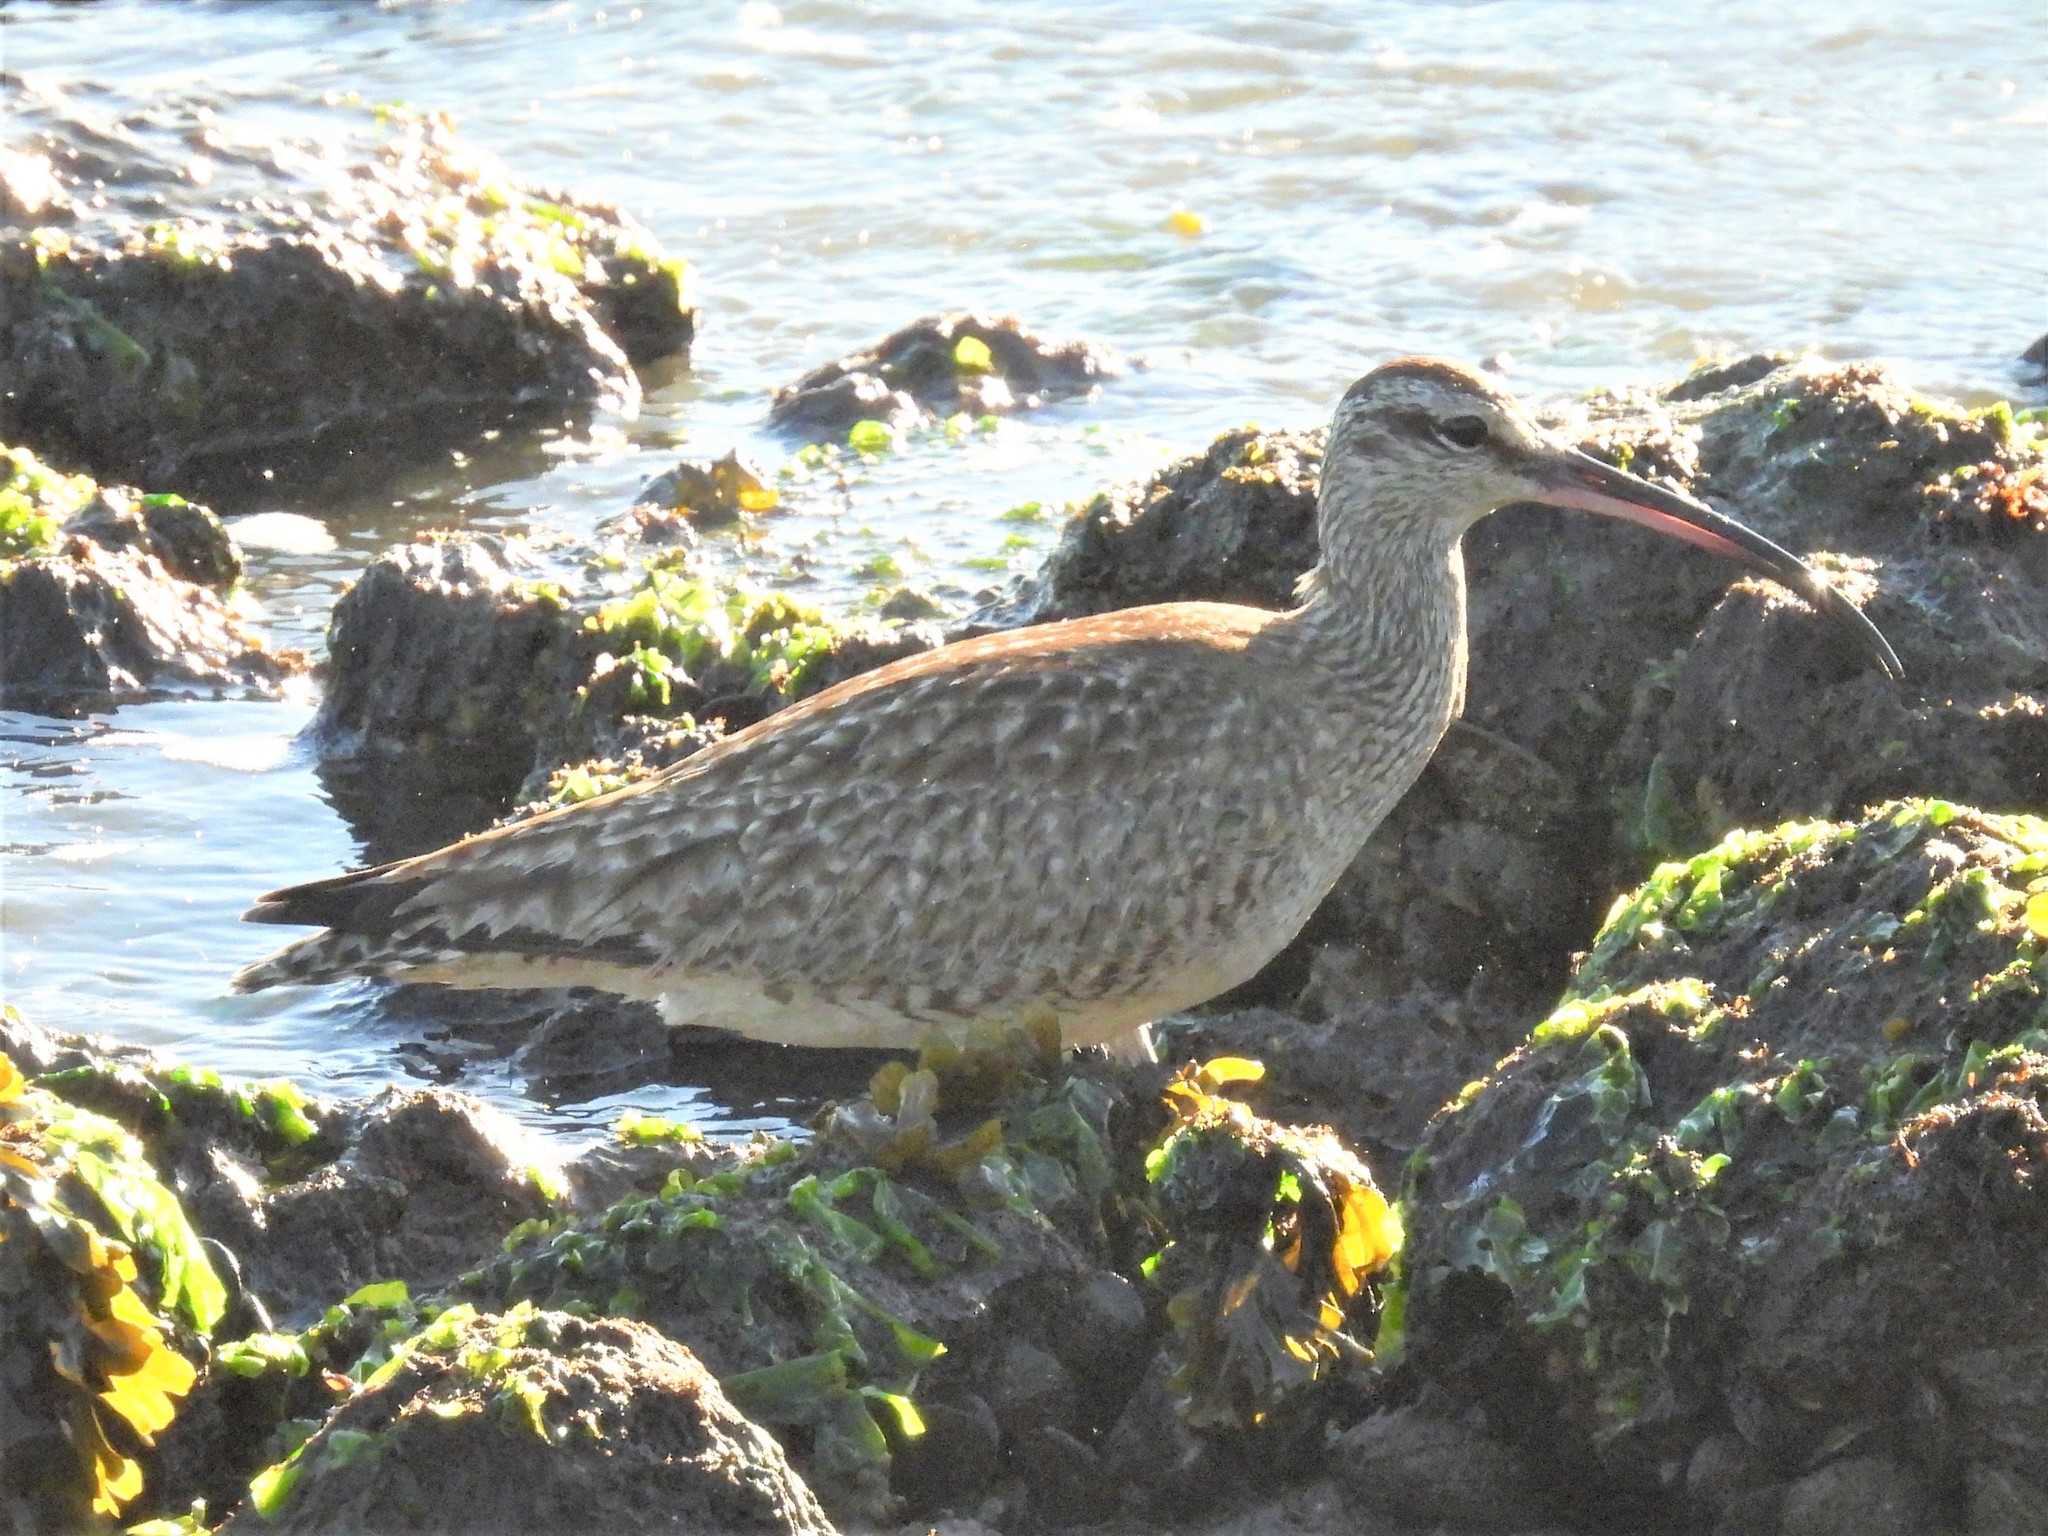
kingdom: Animalia
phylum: Chordata
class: Aves
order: Charadriiformes
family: Scolopacidae
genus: Numenius
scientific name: Numenius phaeopus
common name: Whimbrel
